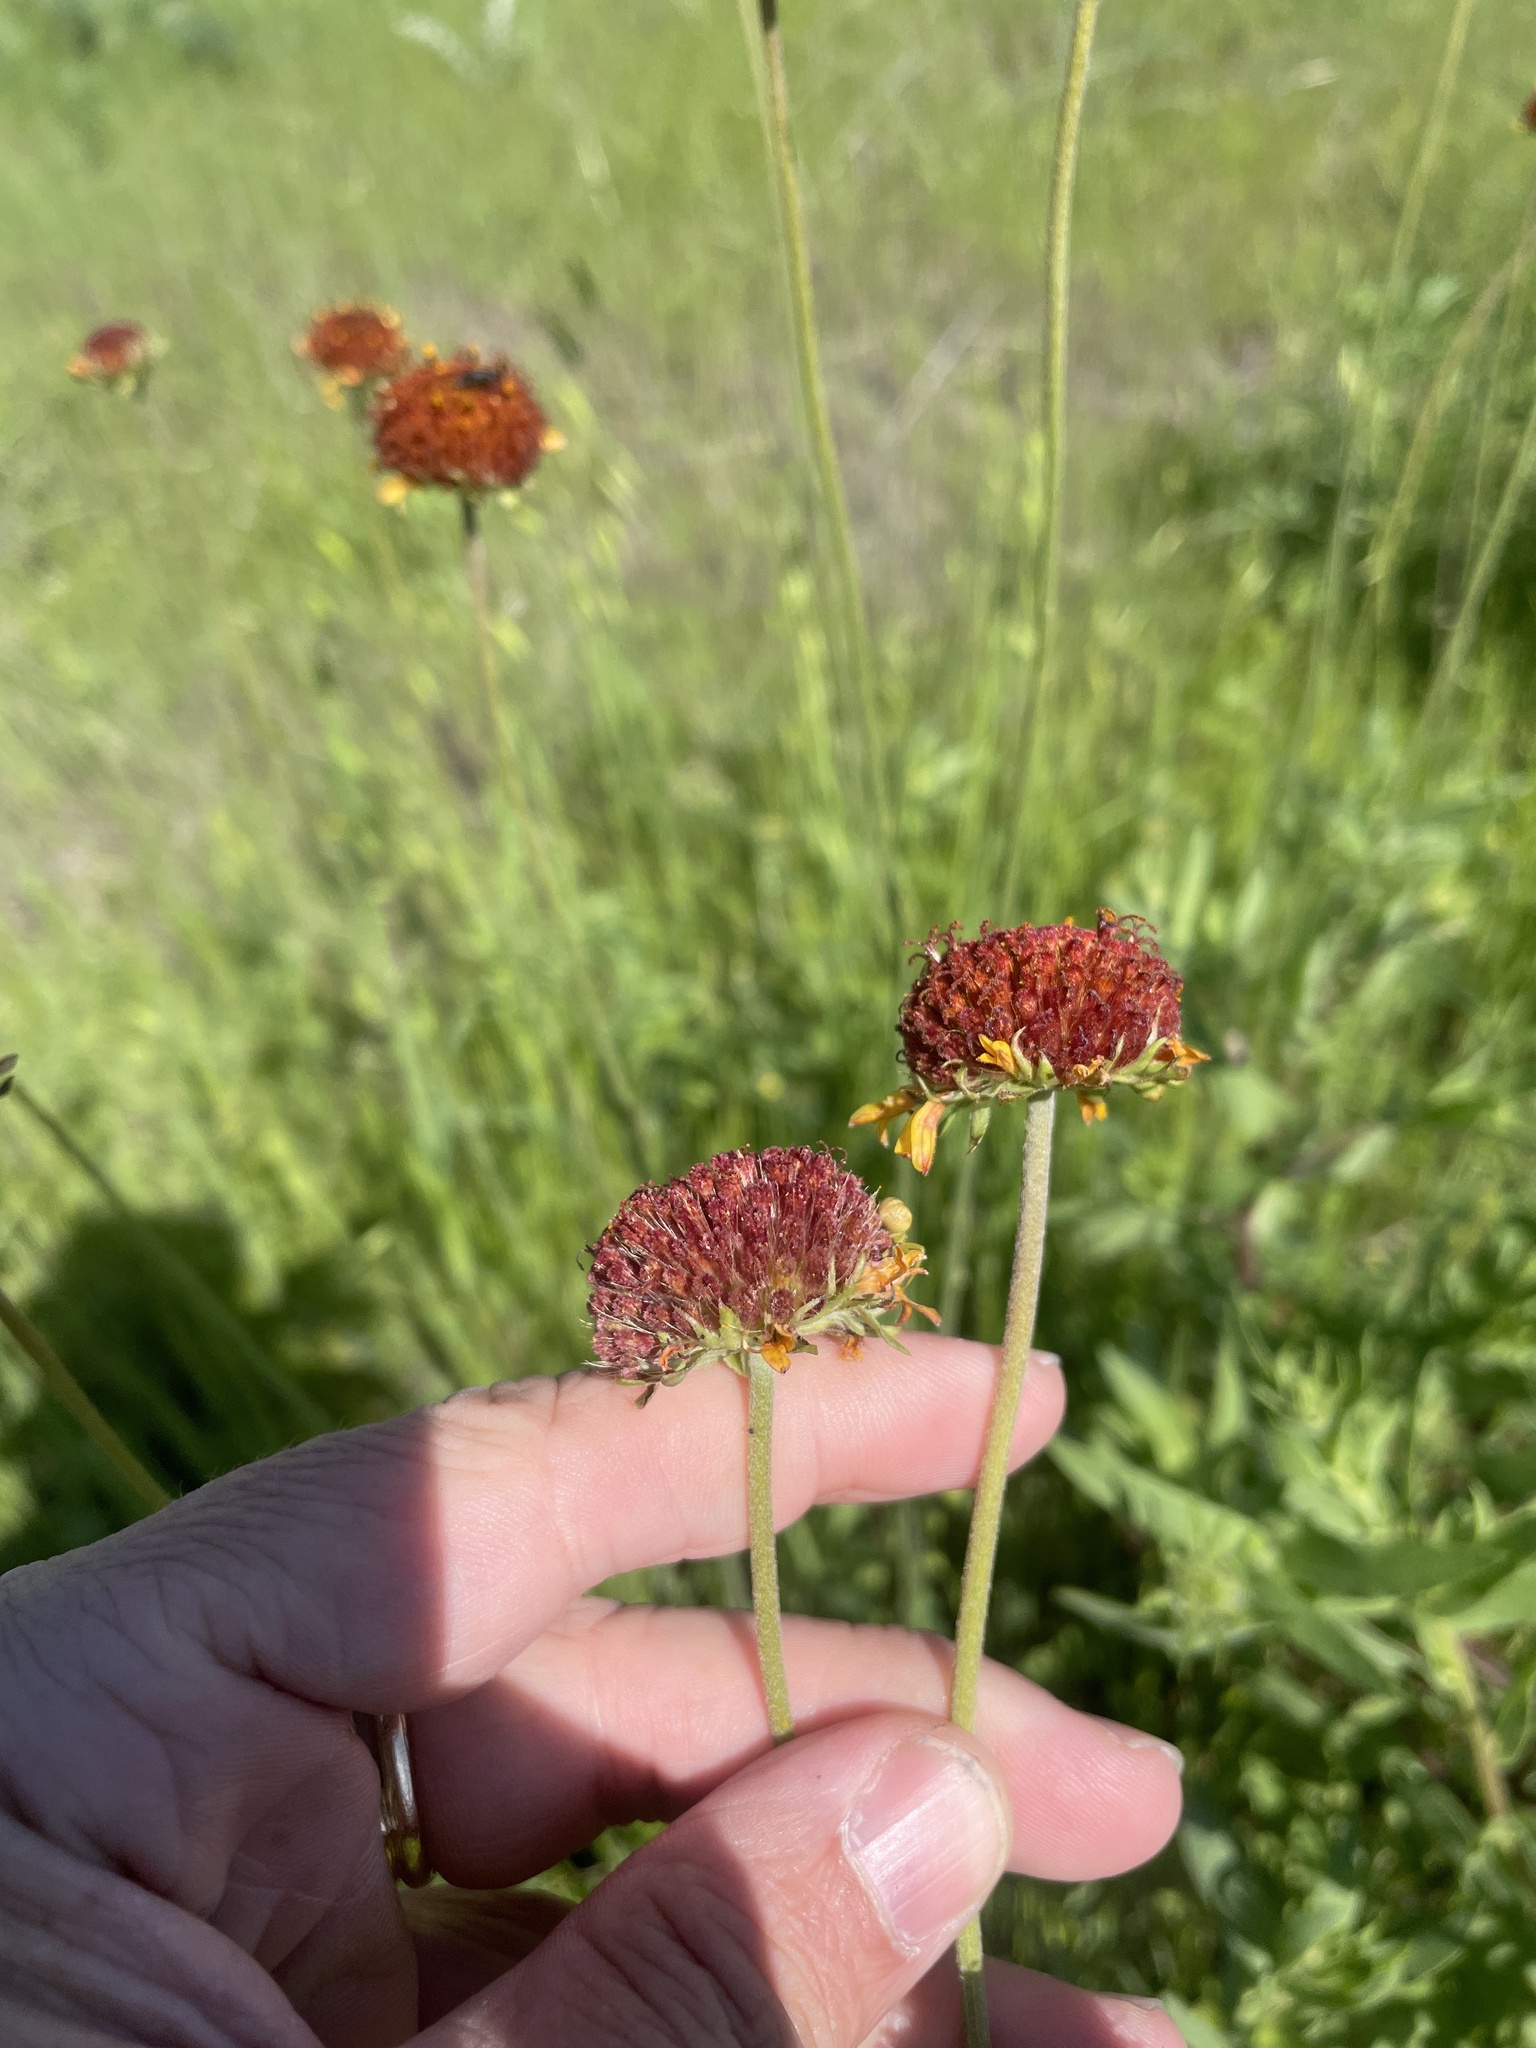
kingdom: Plantae
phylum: Tracheophyta
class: Magnoliopsida
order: Asterales
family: Asteraceae
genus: Gaillardia
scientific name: Gaillardia suavis
